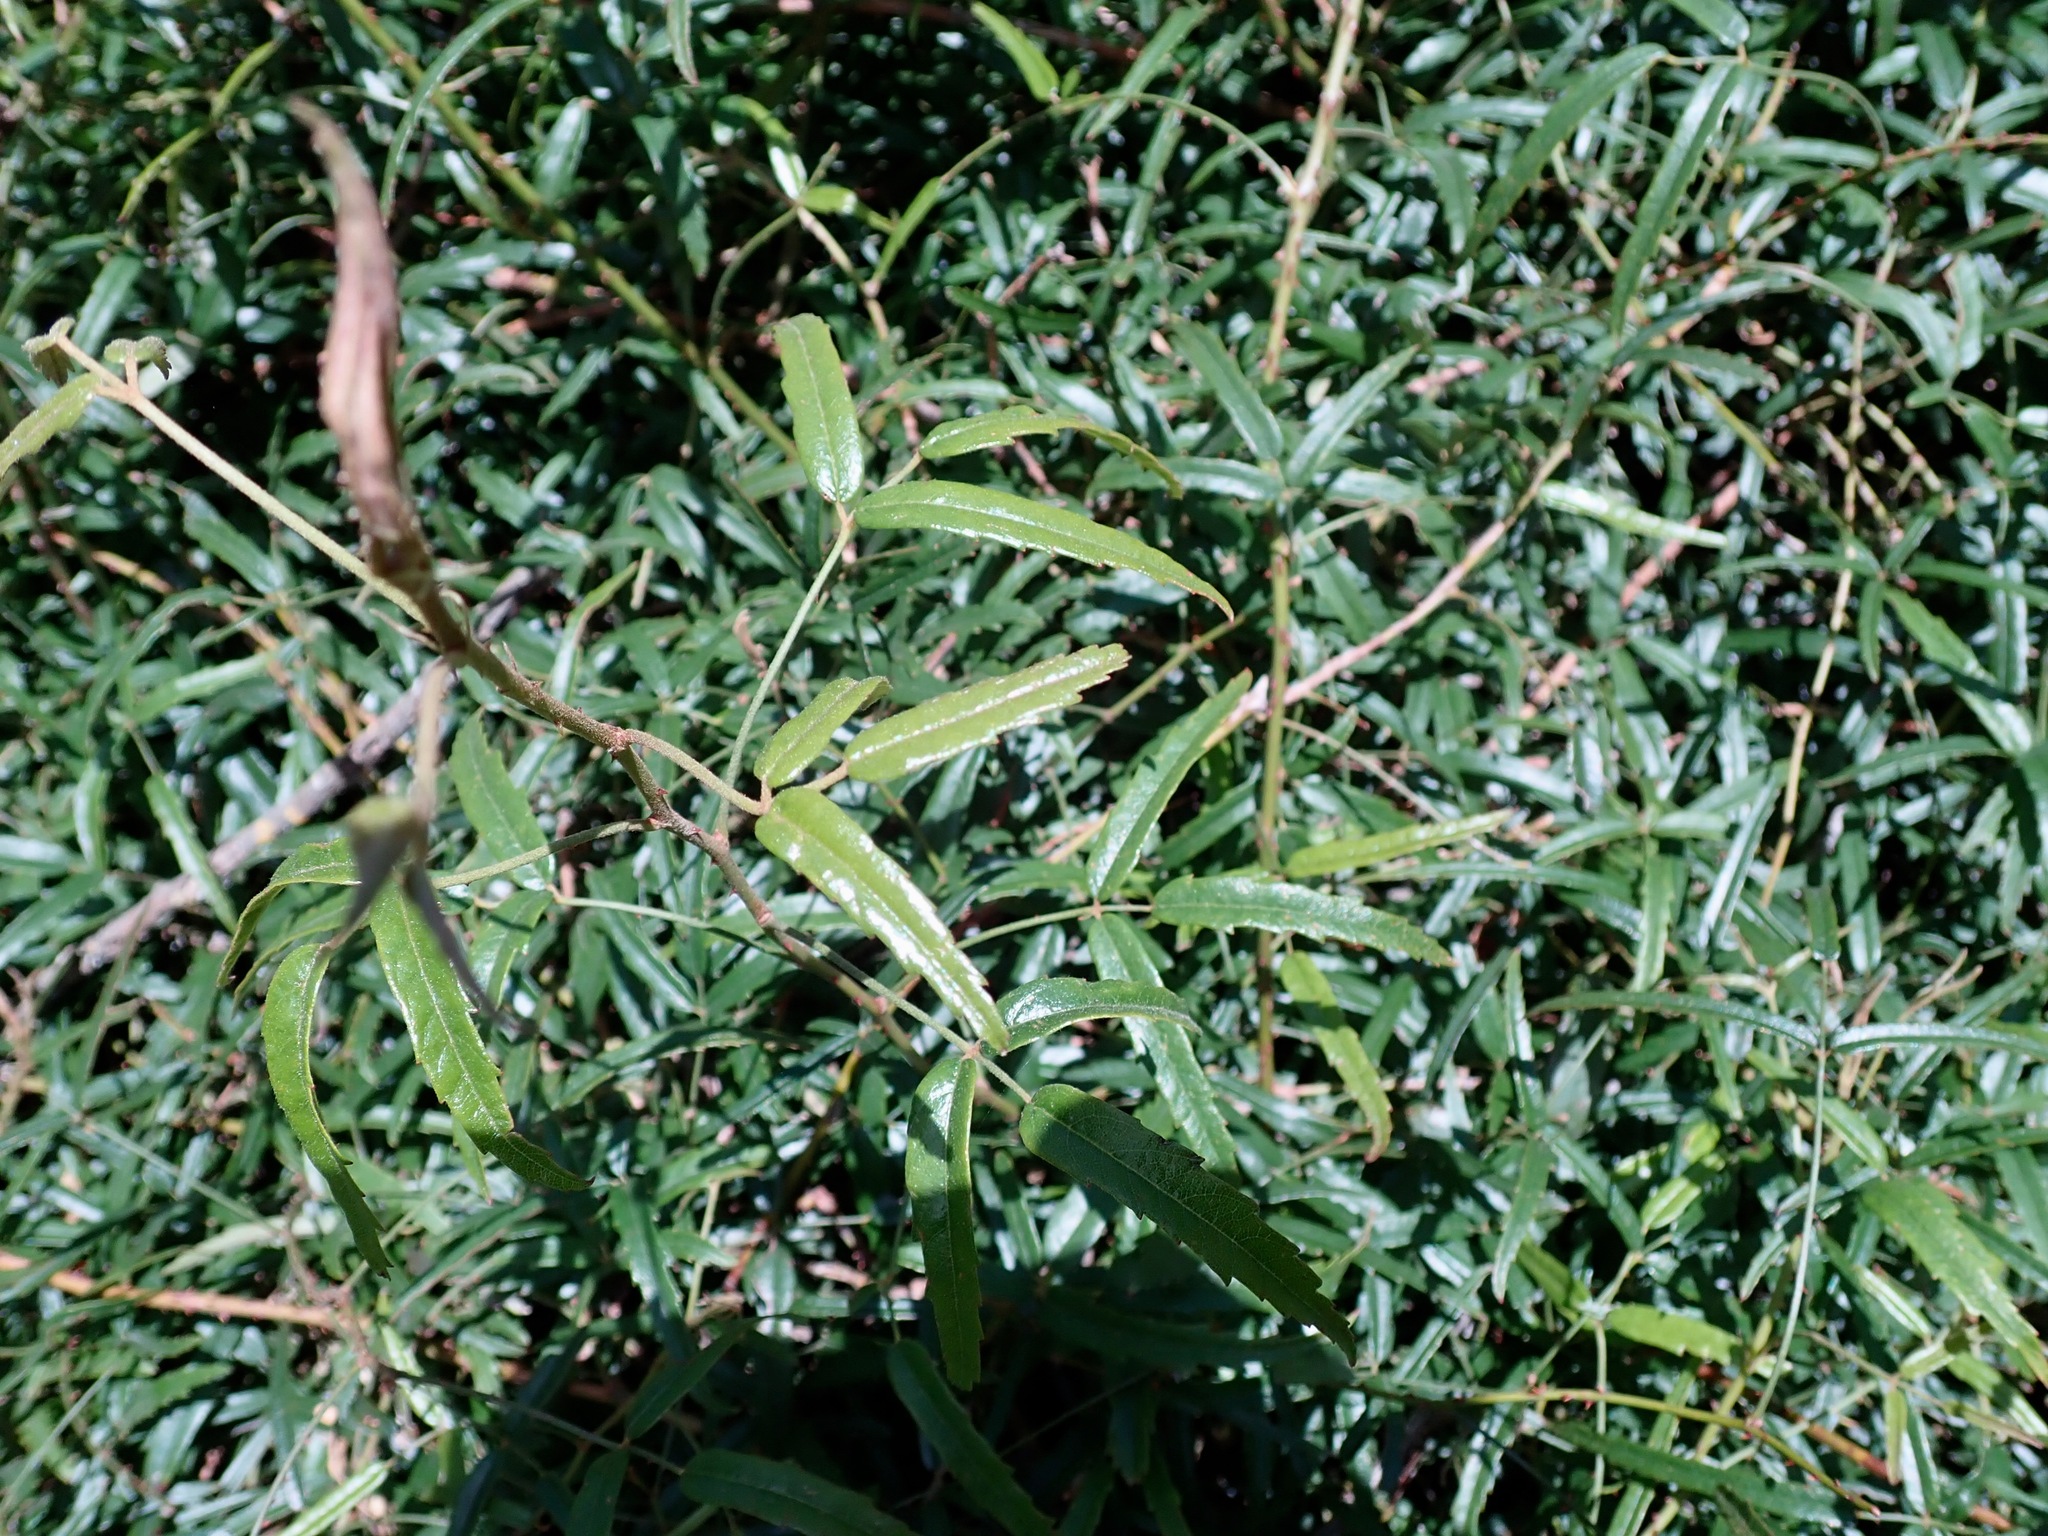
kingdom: Plantae
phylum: Tracheophyta
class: Magnoliopsida
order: Rosales
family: Rosaceae
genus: Rubus
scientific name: Rubus schmidelioides
